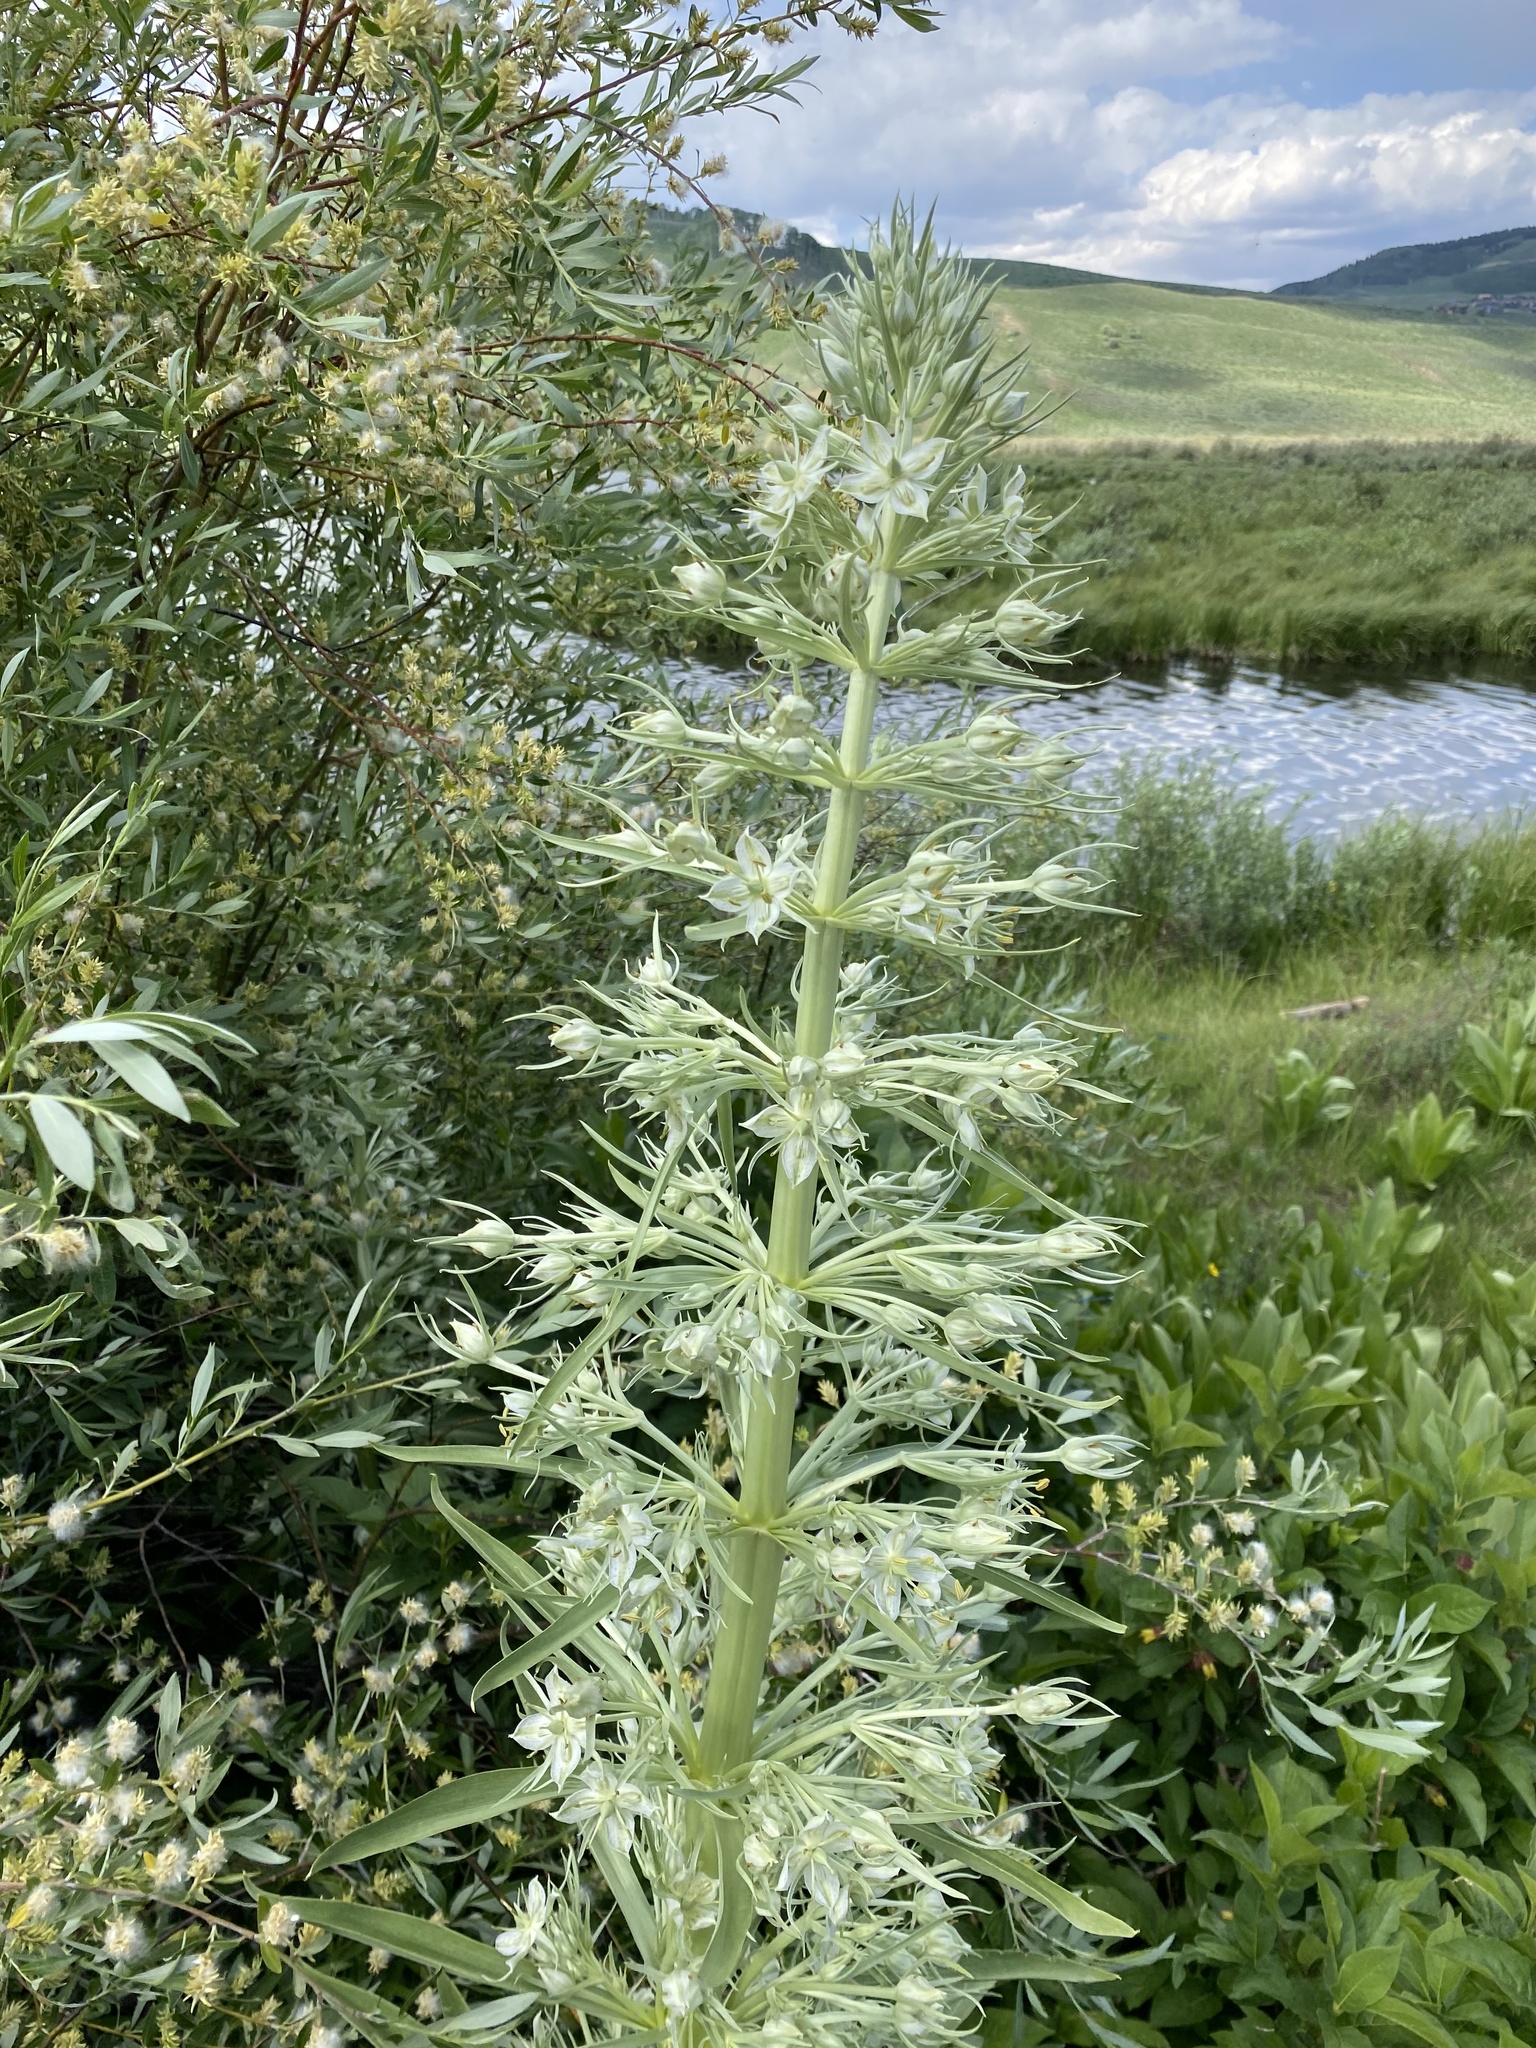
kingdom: Plantae
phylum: Tracheophyta
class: Magnoliopsida
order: Gentianales
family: Gentianaceae
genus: Frasera
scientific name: Frasera speciosa
